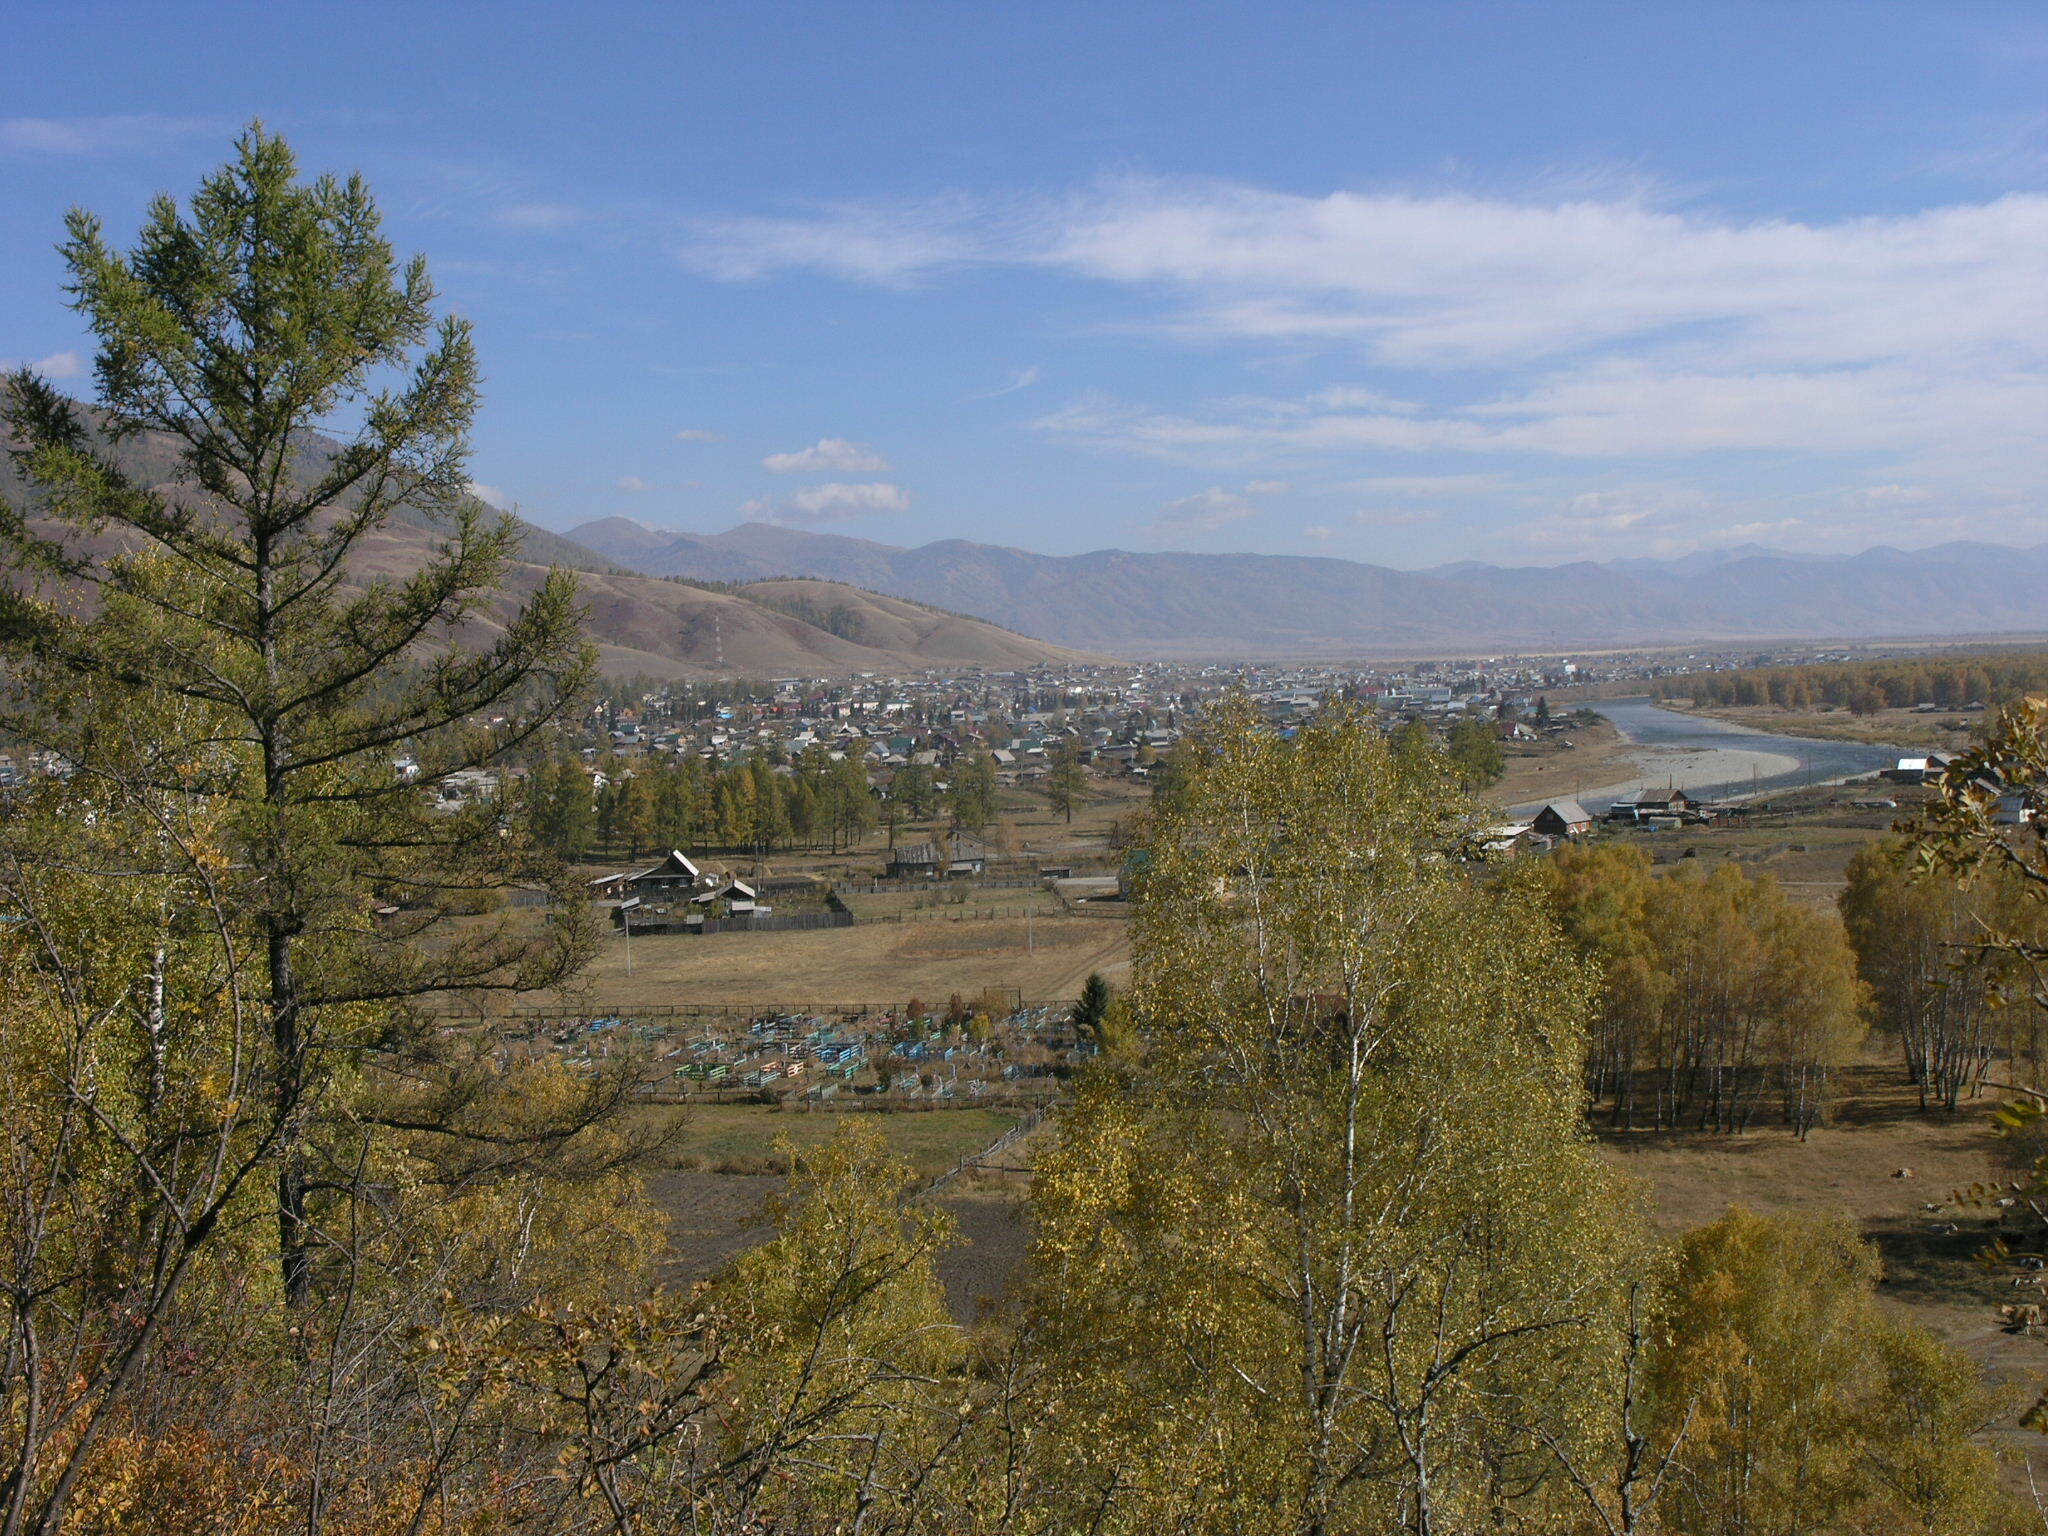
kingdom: Plantae
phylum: Tracheophyta
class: Pinopsida
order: Pinales
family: Pinaceae
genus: Larix
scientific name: Larix sibirica
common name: Siberian larch
